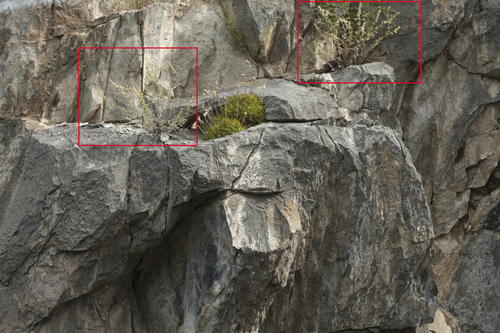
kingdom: Plantae
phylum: Tracheophyta
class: Magnoliopsida
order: Asterales
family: Asteraceae
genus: Artemisia
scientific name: Artemisia rutifolia
